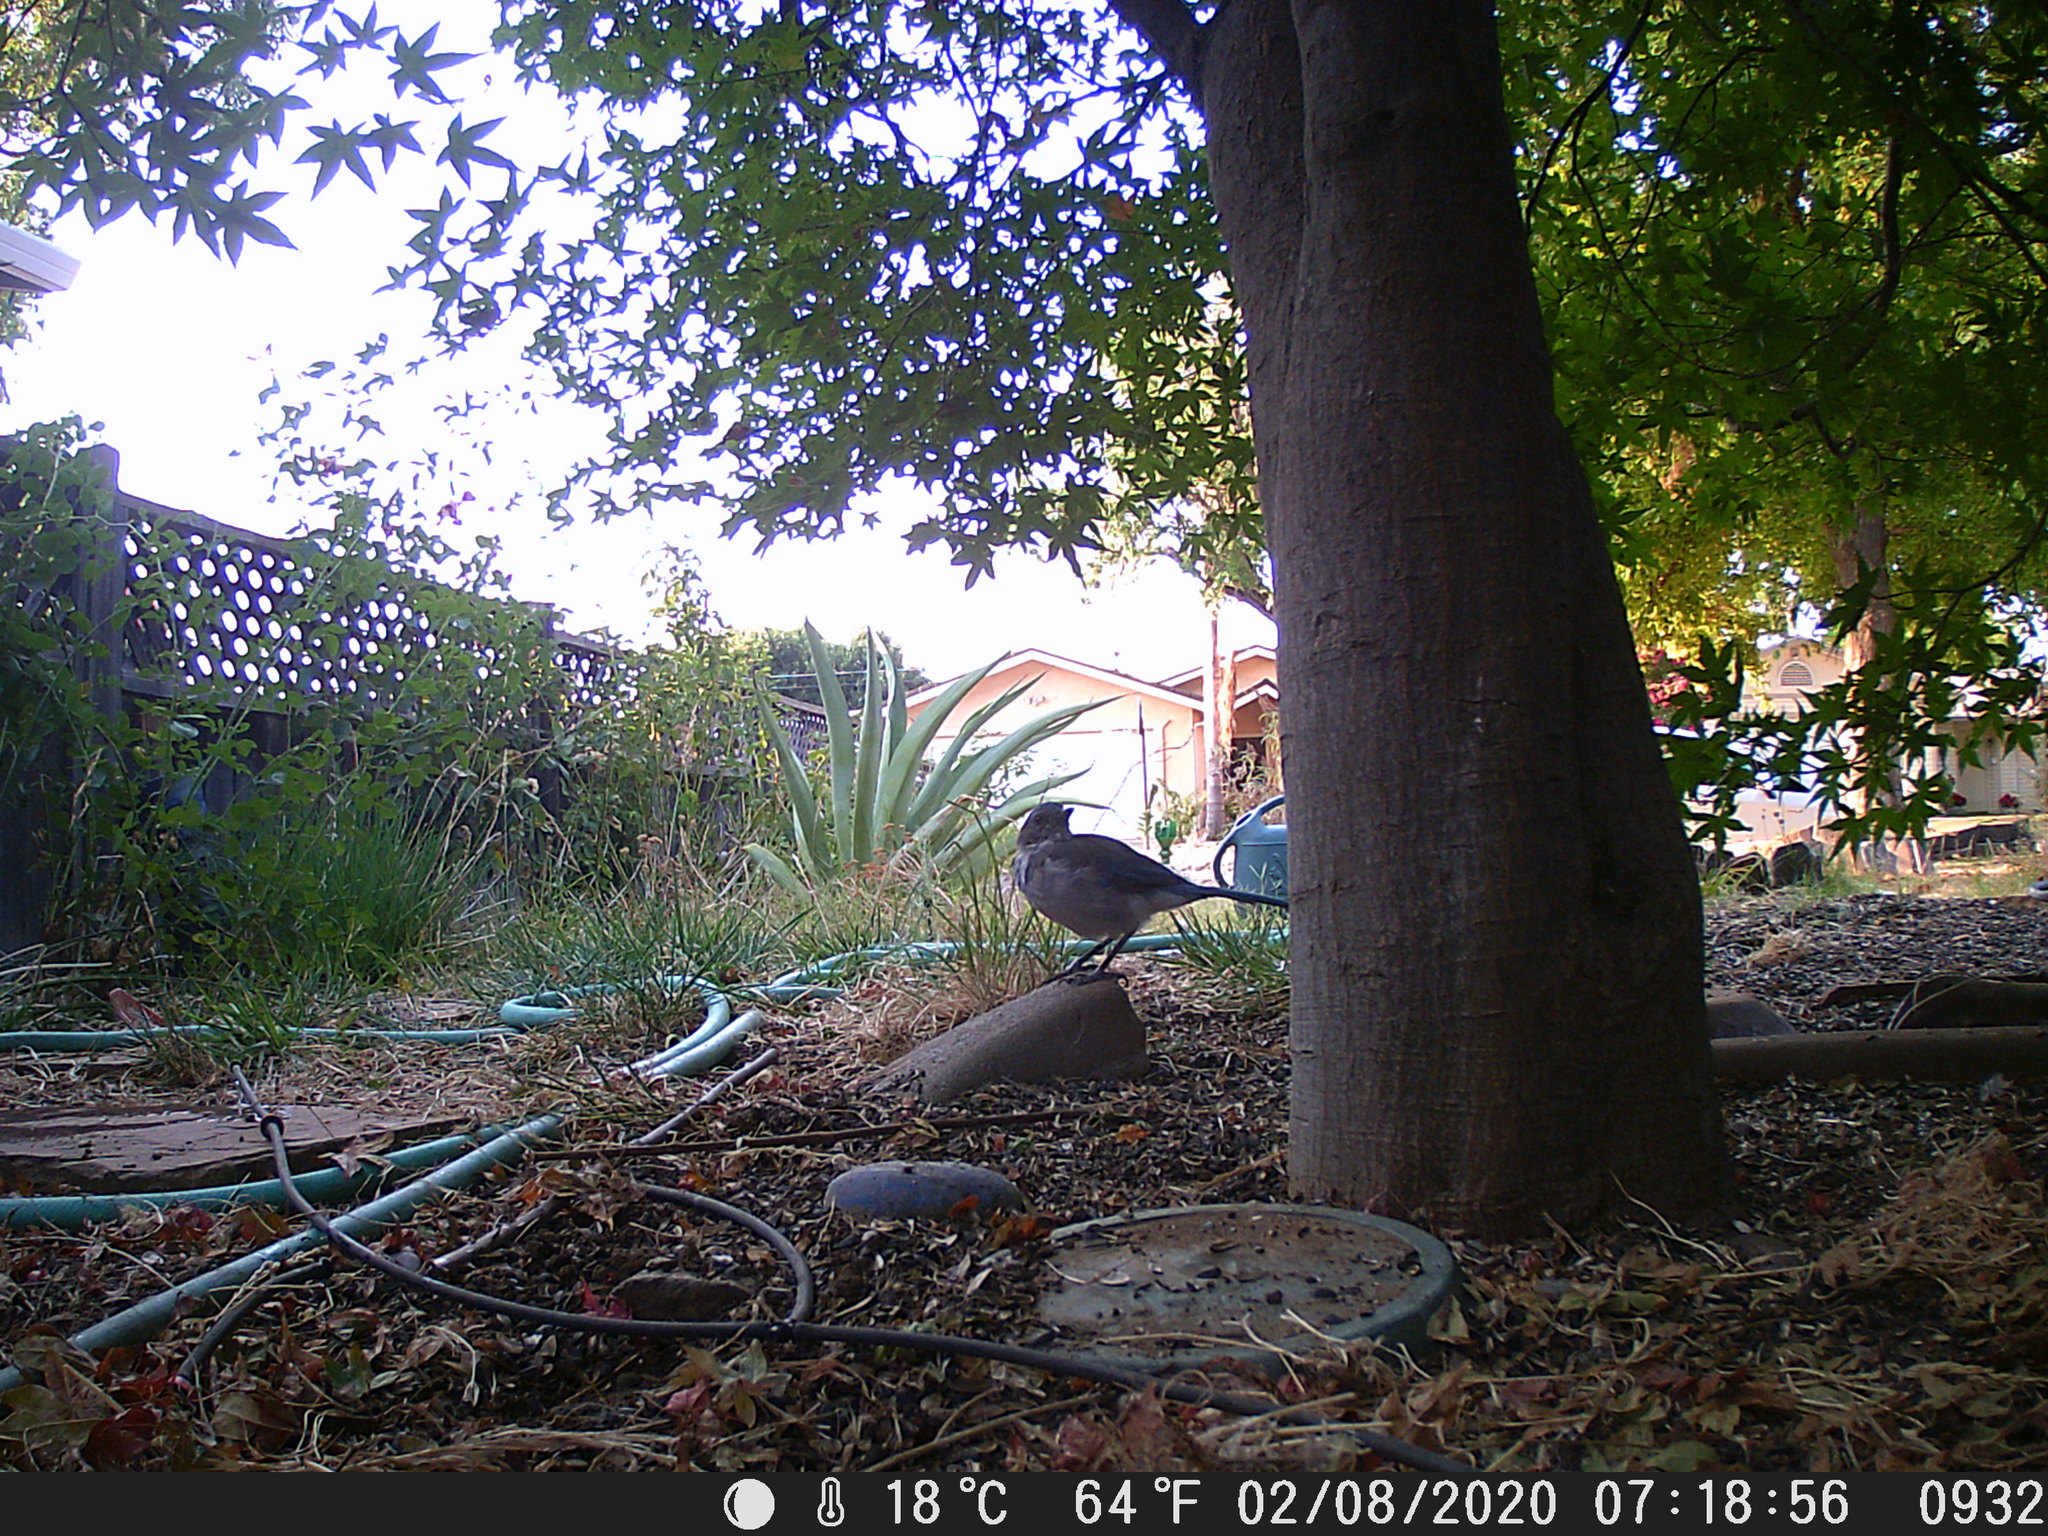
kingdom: Animalia
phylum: Chordata
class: Aves
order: Passeriformes
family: Corvidae
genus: Aphelocoma
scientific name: Aphelocoma californica
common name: California scrub-jay
